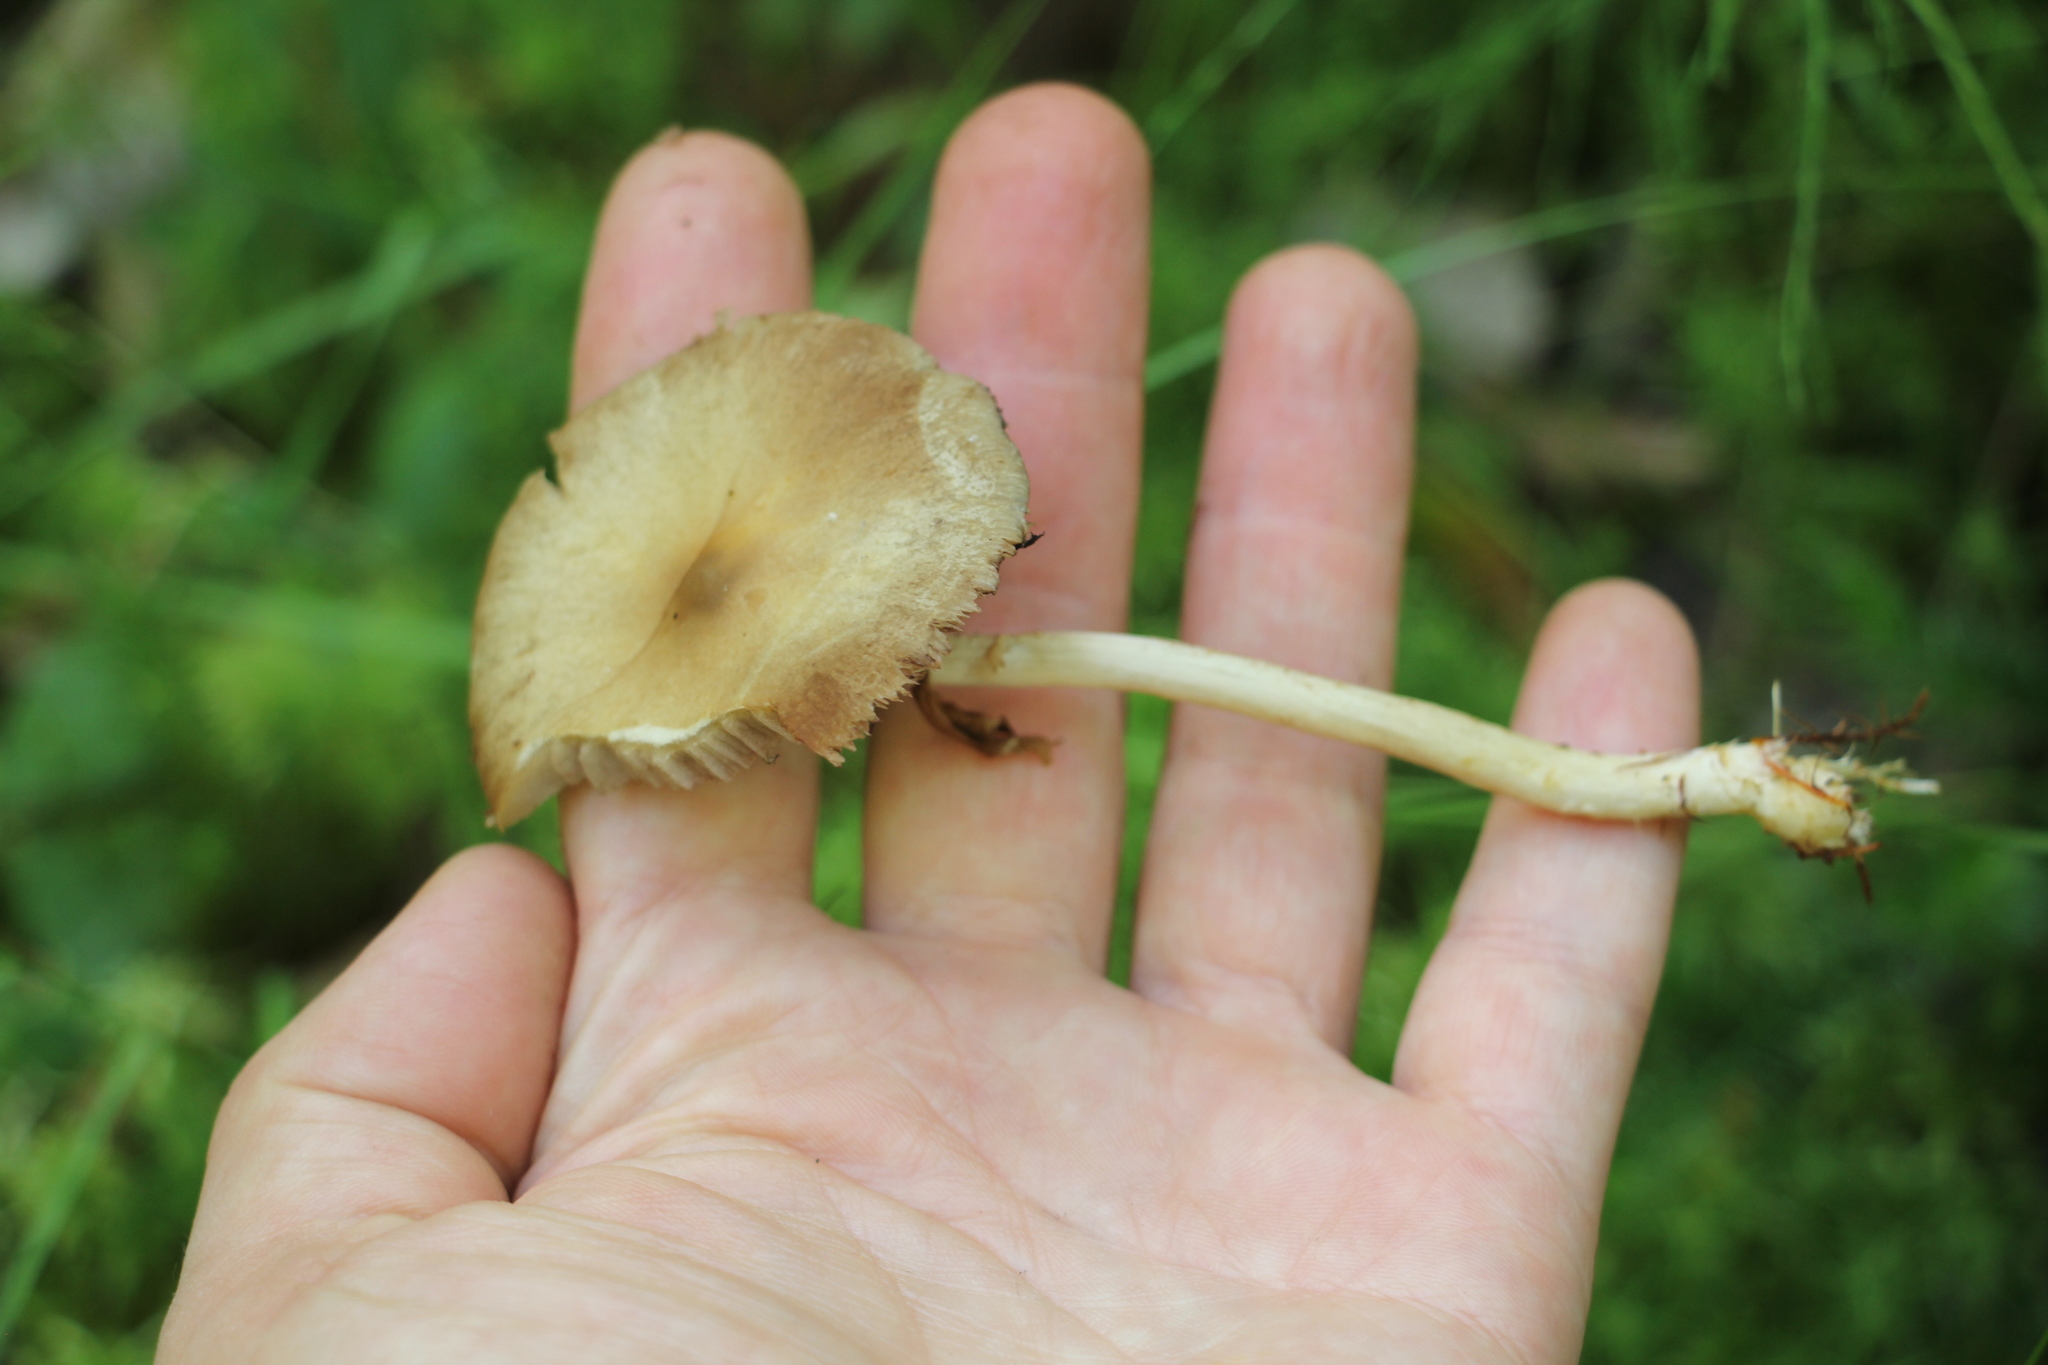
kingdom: Fungi
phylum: Basidiomycota
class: Agaricomycetes
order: Agaricales
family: Strophariaceae
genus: Agrocybe
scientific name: Agrocybe praecox
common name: Spring fieldcap
